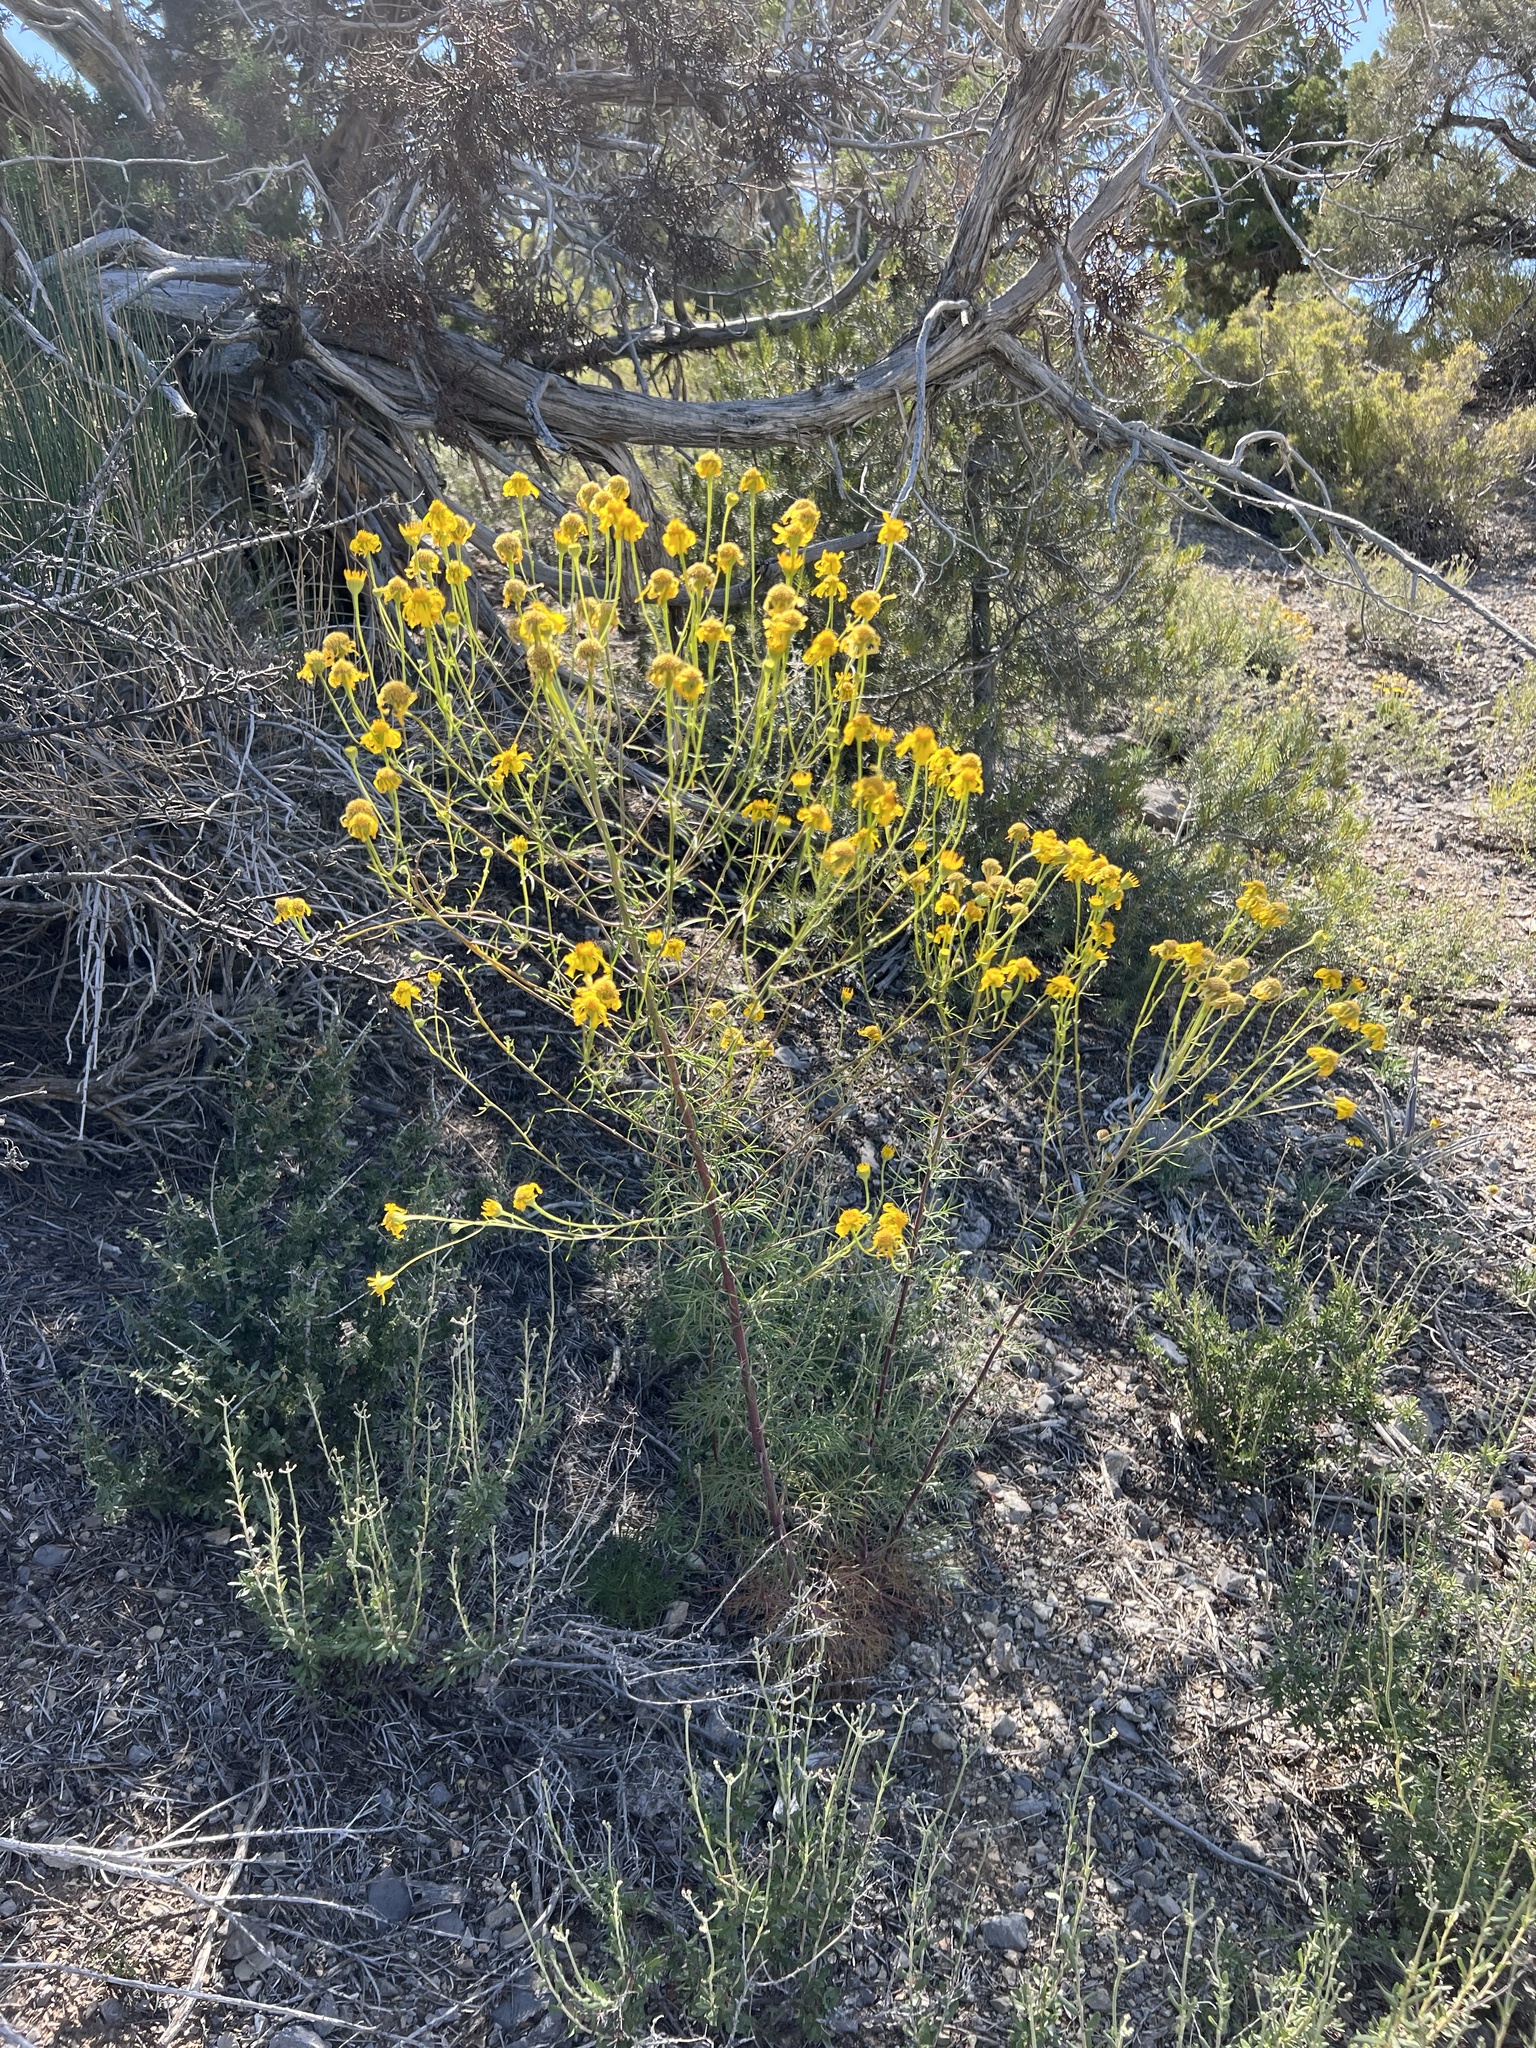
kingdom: Plantae
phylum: Tracheophyta
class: Magnoliopsida
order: Asterales
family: Asteraceae
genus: Hymenoxys
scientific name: Hymenoxys cooperi
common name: Cooper's bitterweed
